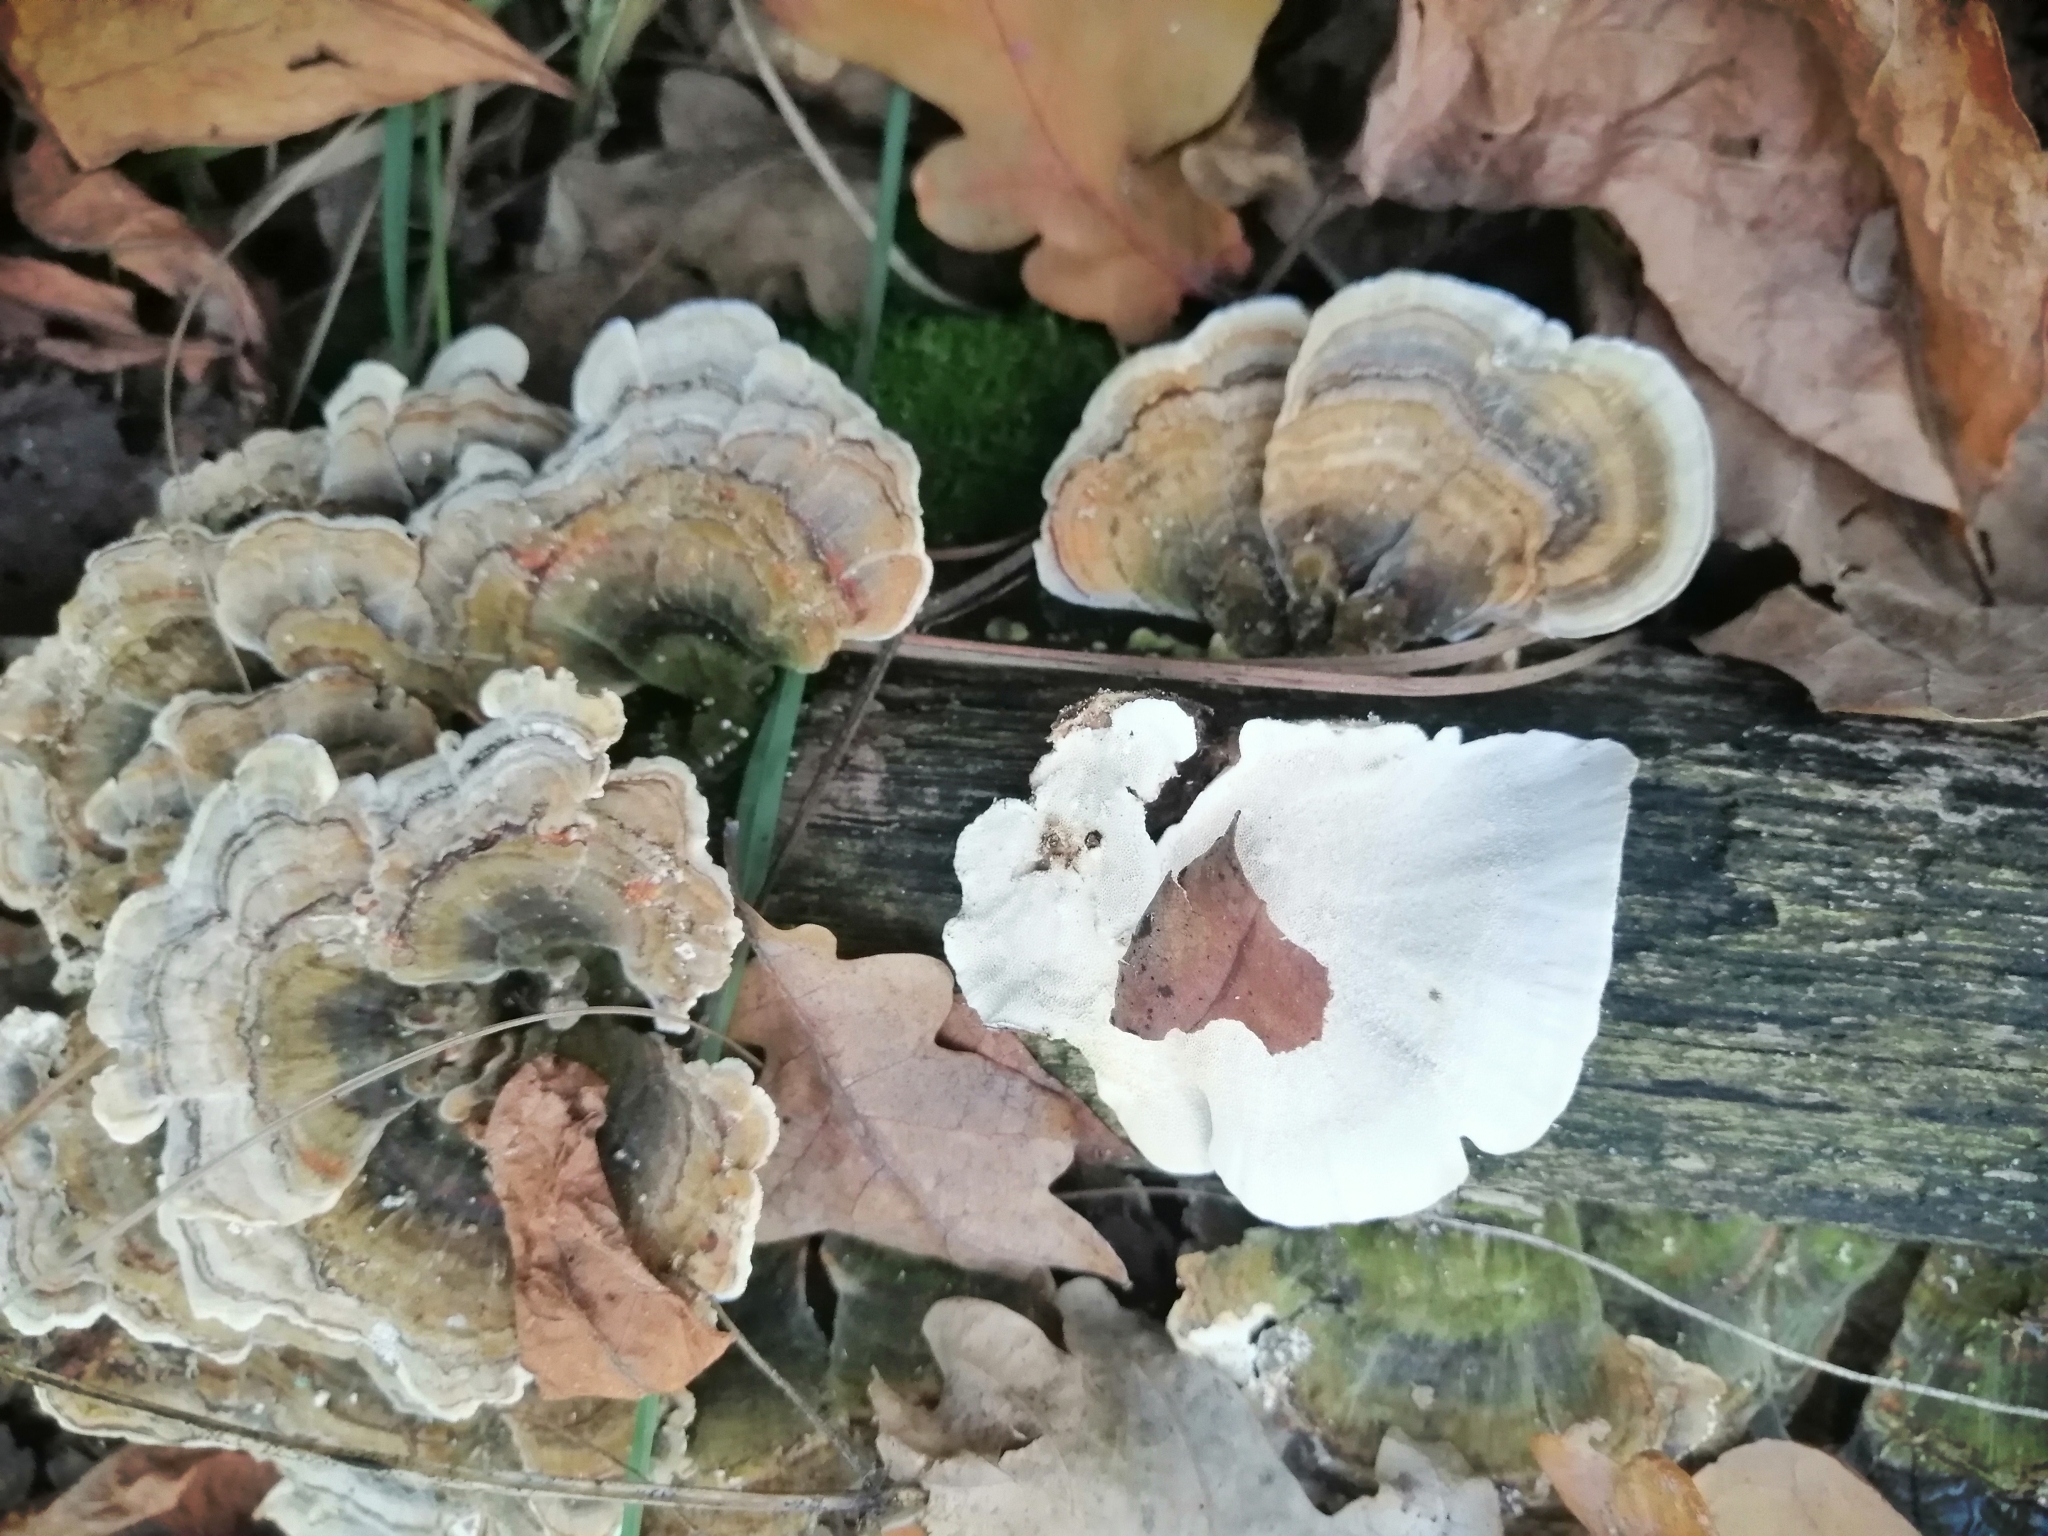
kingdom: Fungi
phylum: Basidiomycota
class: Agaricomycetes
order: Polyporales
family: Polyporaceae
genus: Trametes
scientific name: Trametes versicolor
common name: Turkeytail
